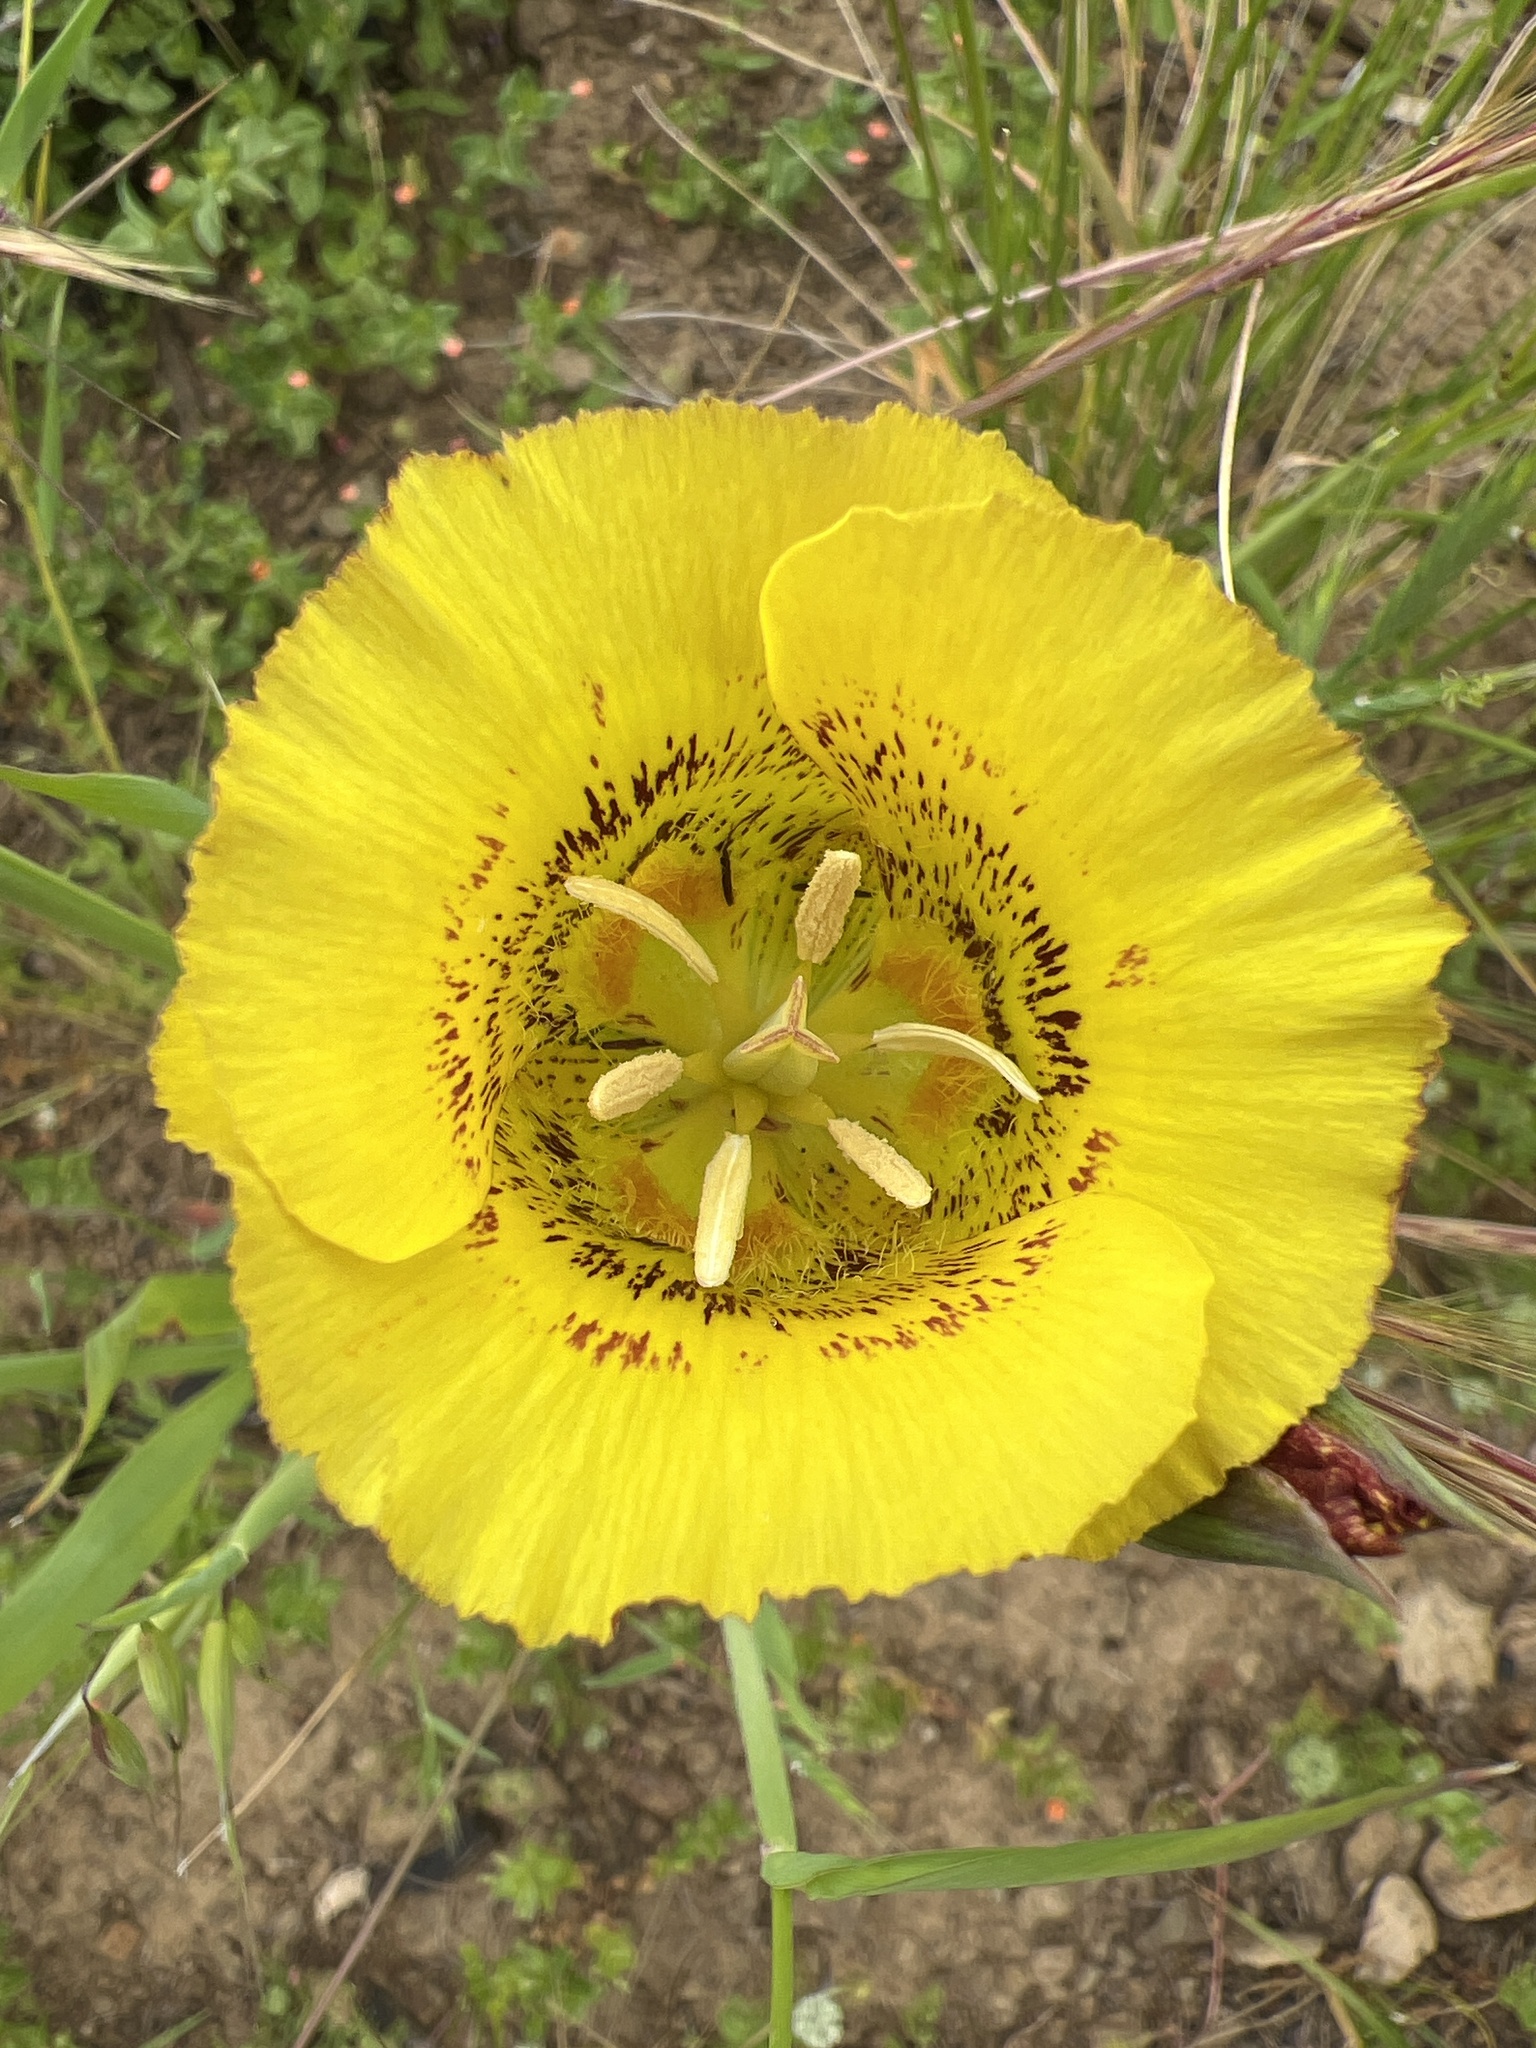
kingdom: Plantae
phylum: Tracheophyta
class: Liliopsida
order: Liliales
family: Liliaceae
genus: Calochortus
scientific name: Calochortus luteus
